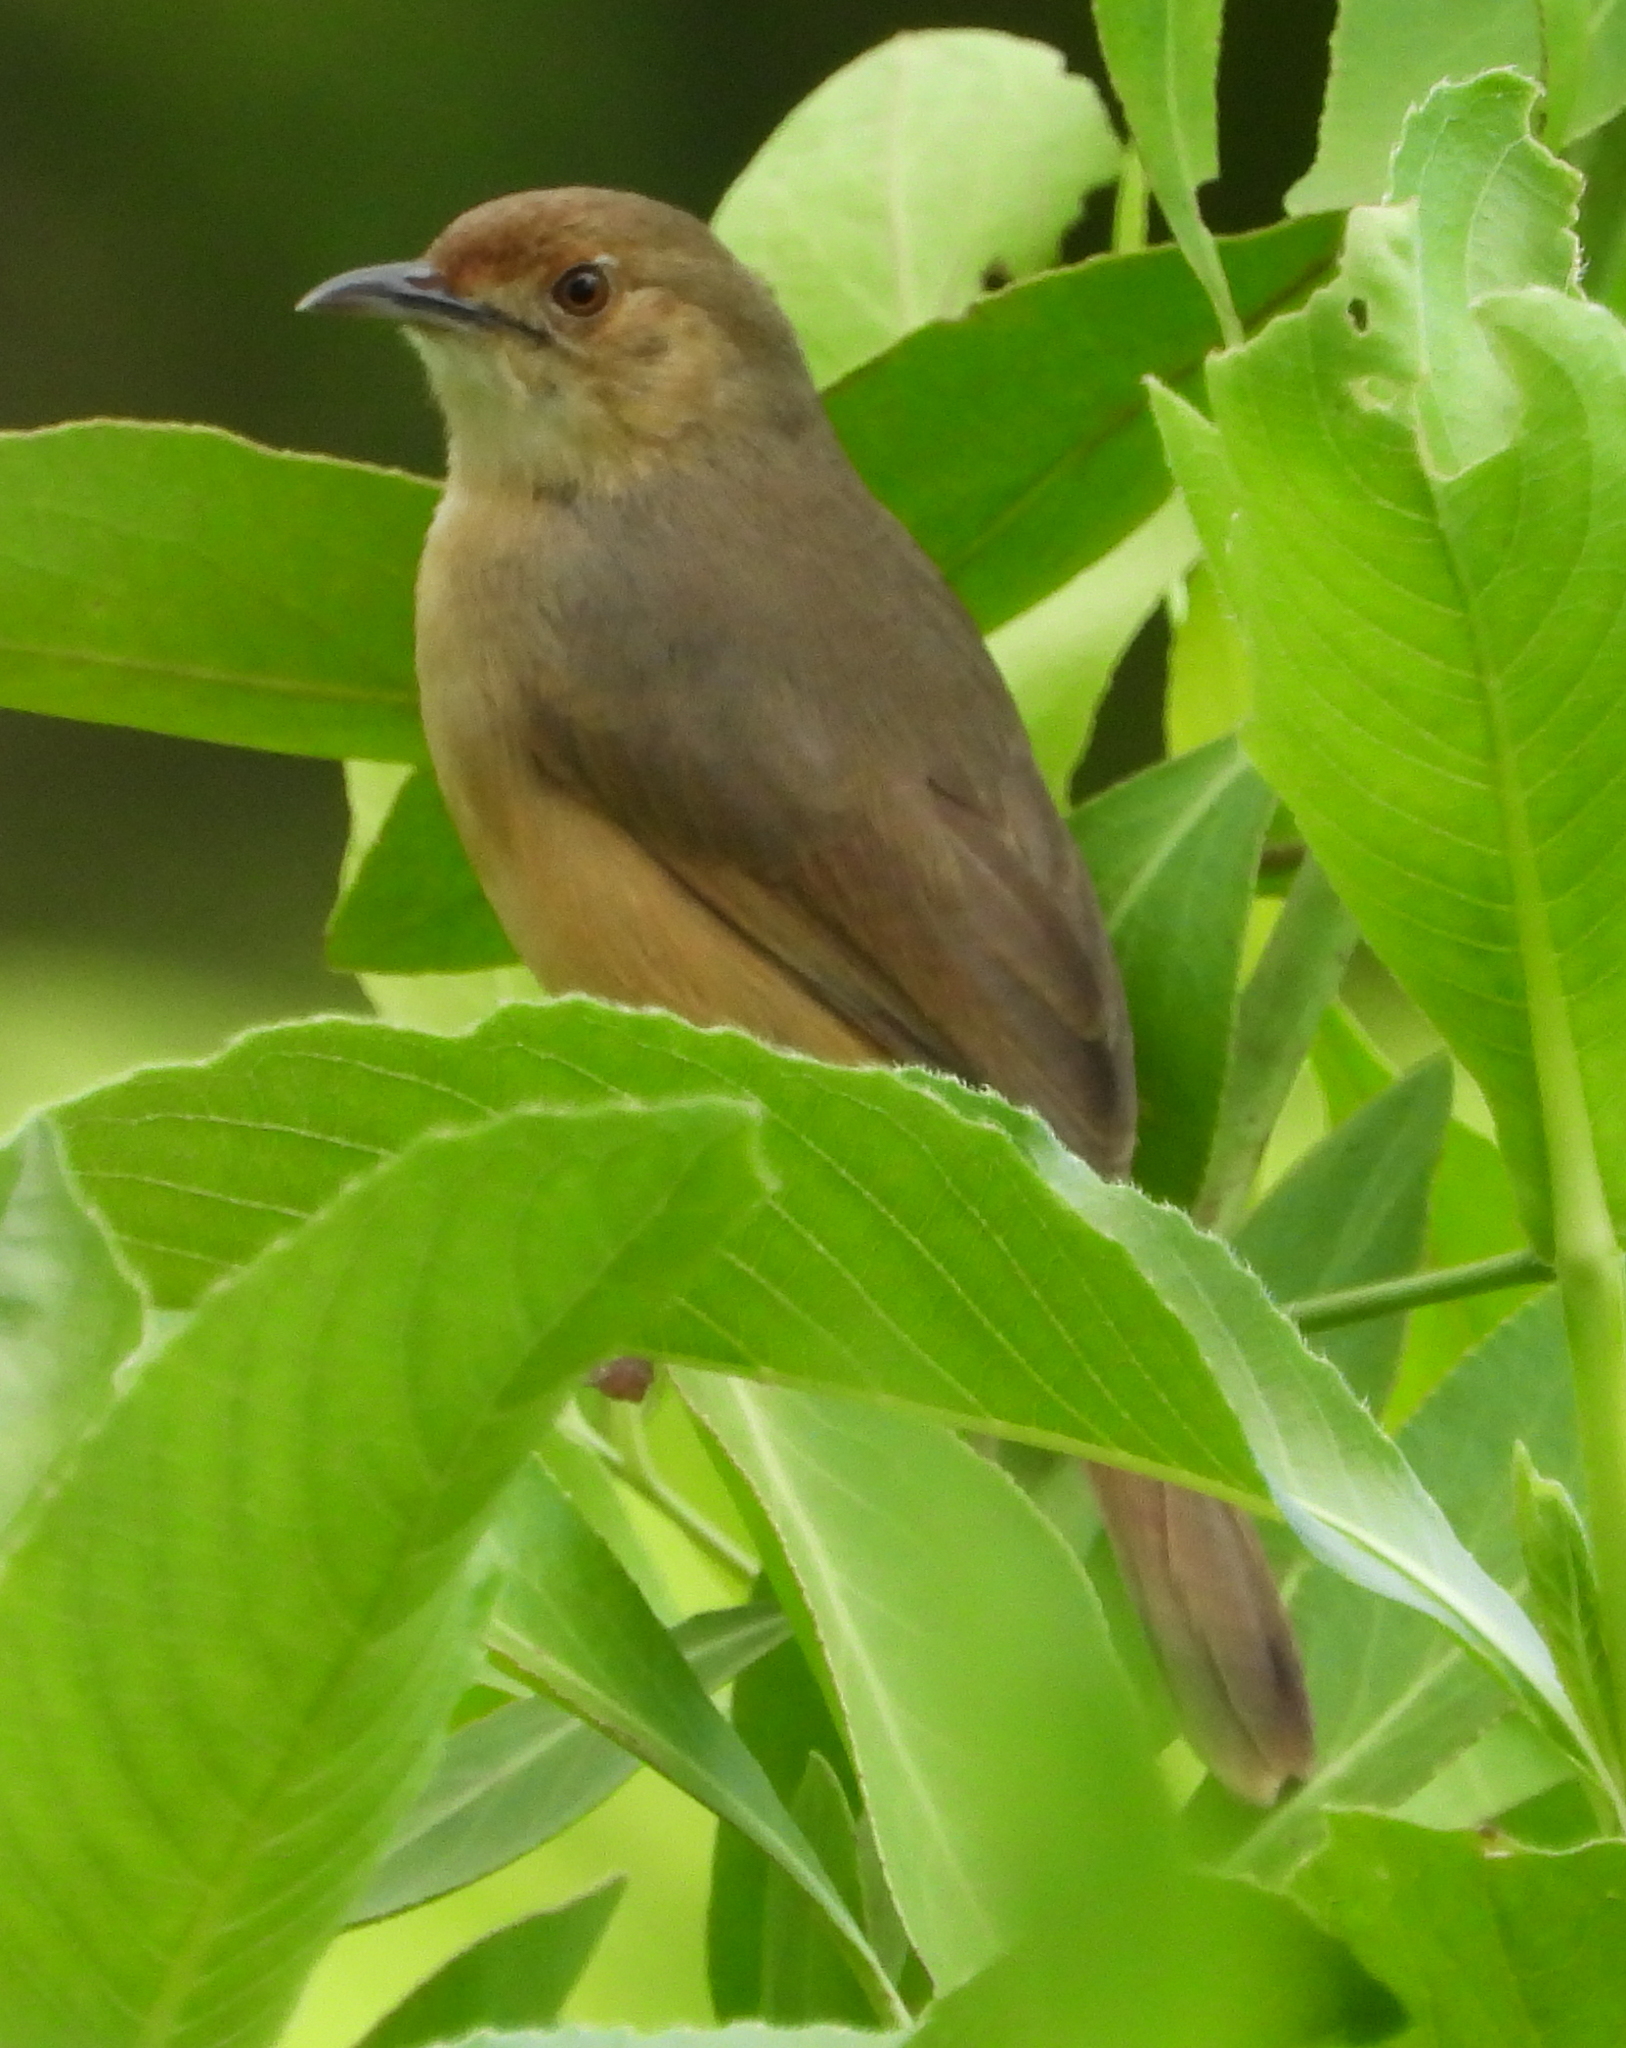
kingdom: Animalia
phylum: Chordata
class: Aves
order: Passeriformes
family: Cisticolidae
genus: Cisticola
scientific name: Cisticola erythrops
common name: Red-faced cisticola
